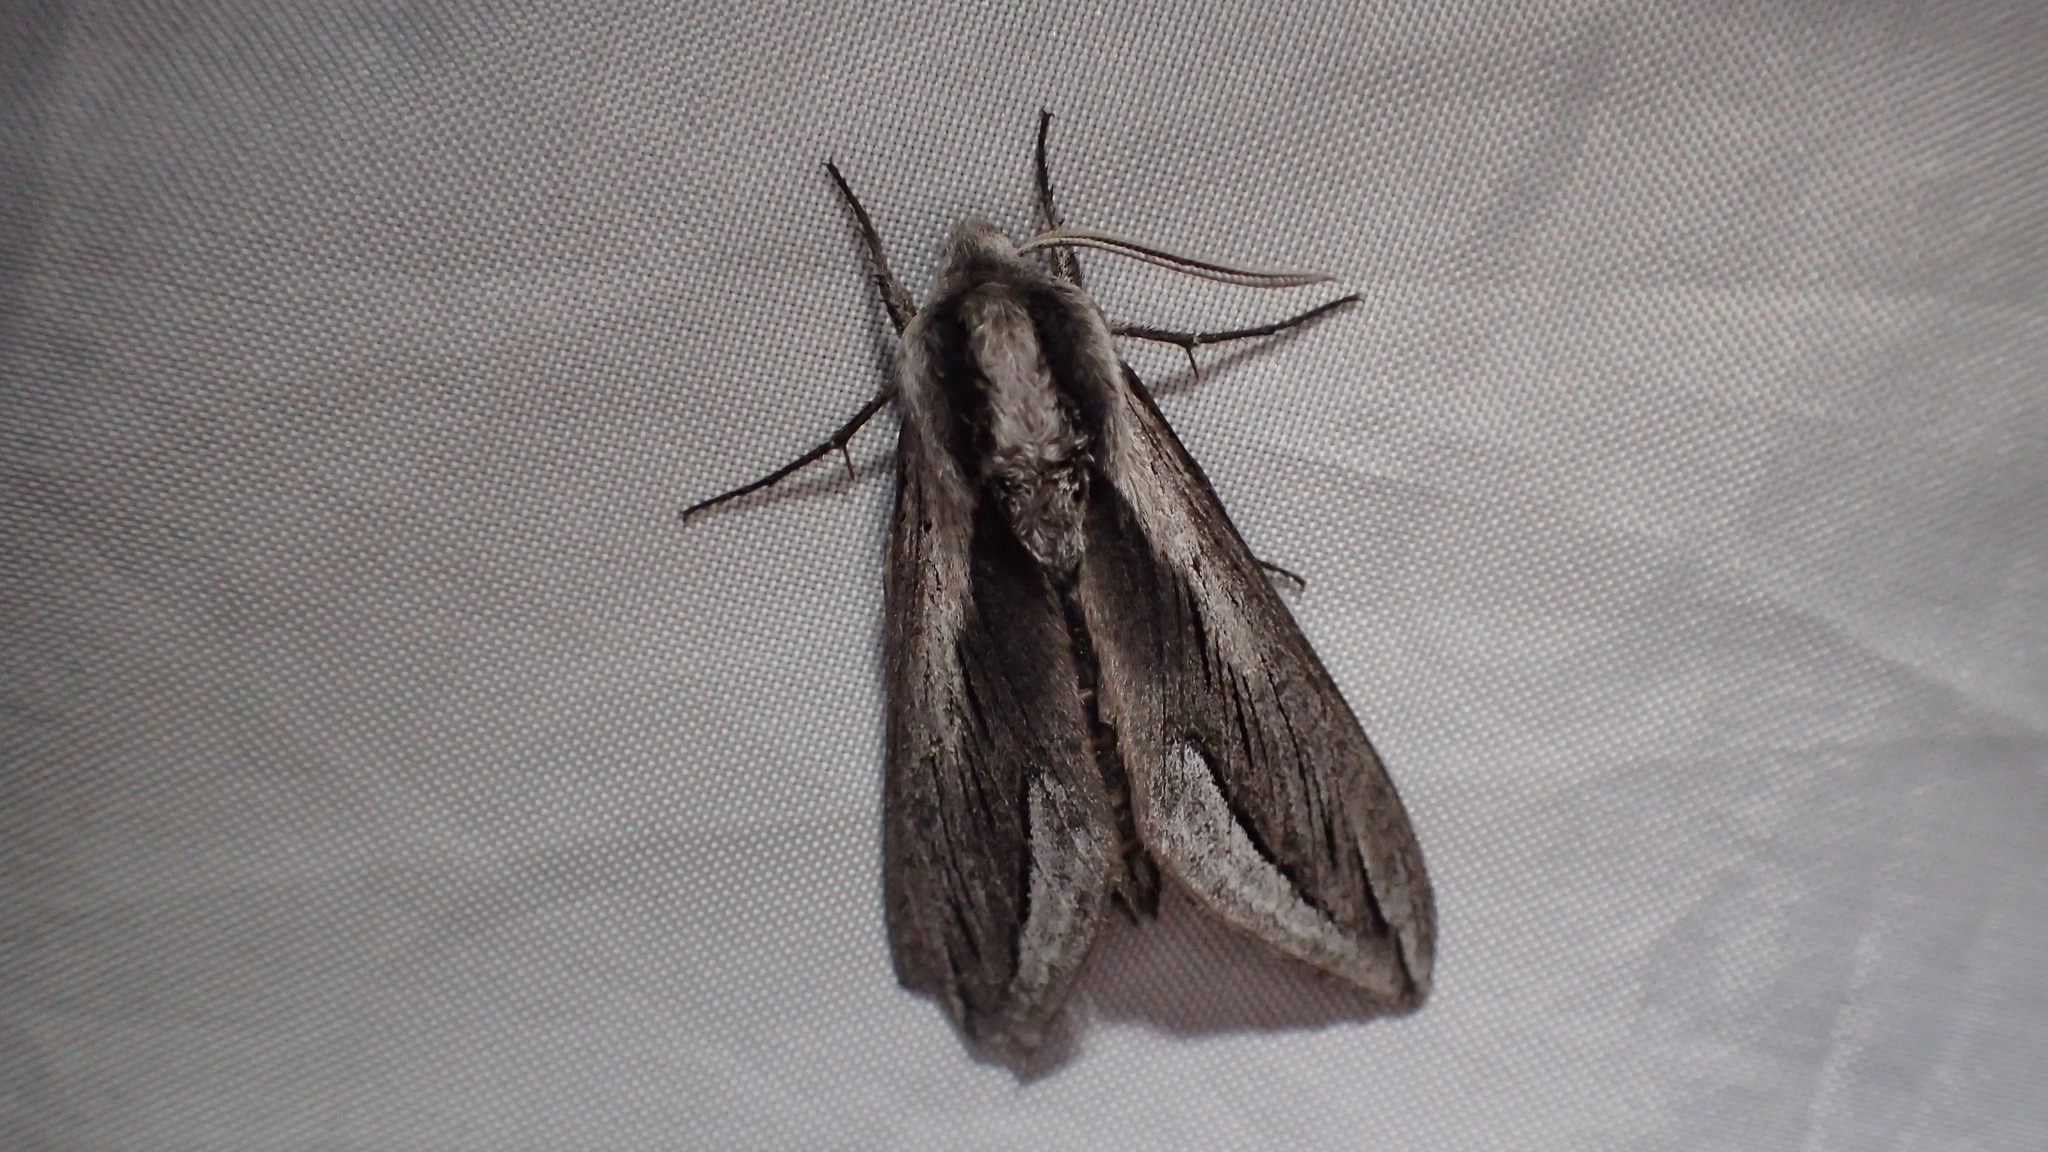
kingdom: Animalia
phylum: Arthropoda
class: Insecta
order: Lepidoptera
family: Sphingidae
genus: Sphinx
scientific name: Sphinx vashti
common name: Snowberry sphinx
